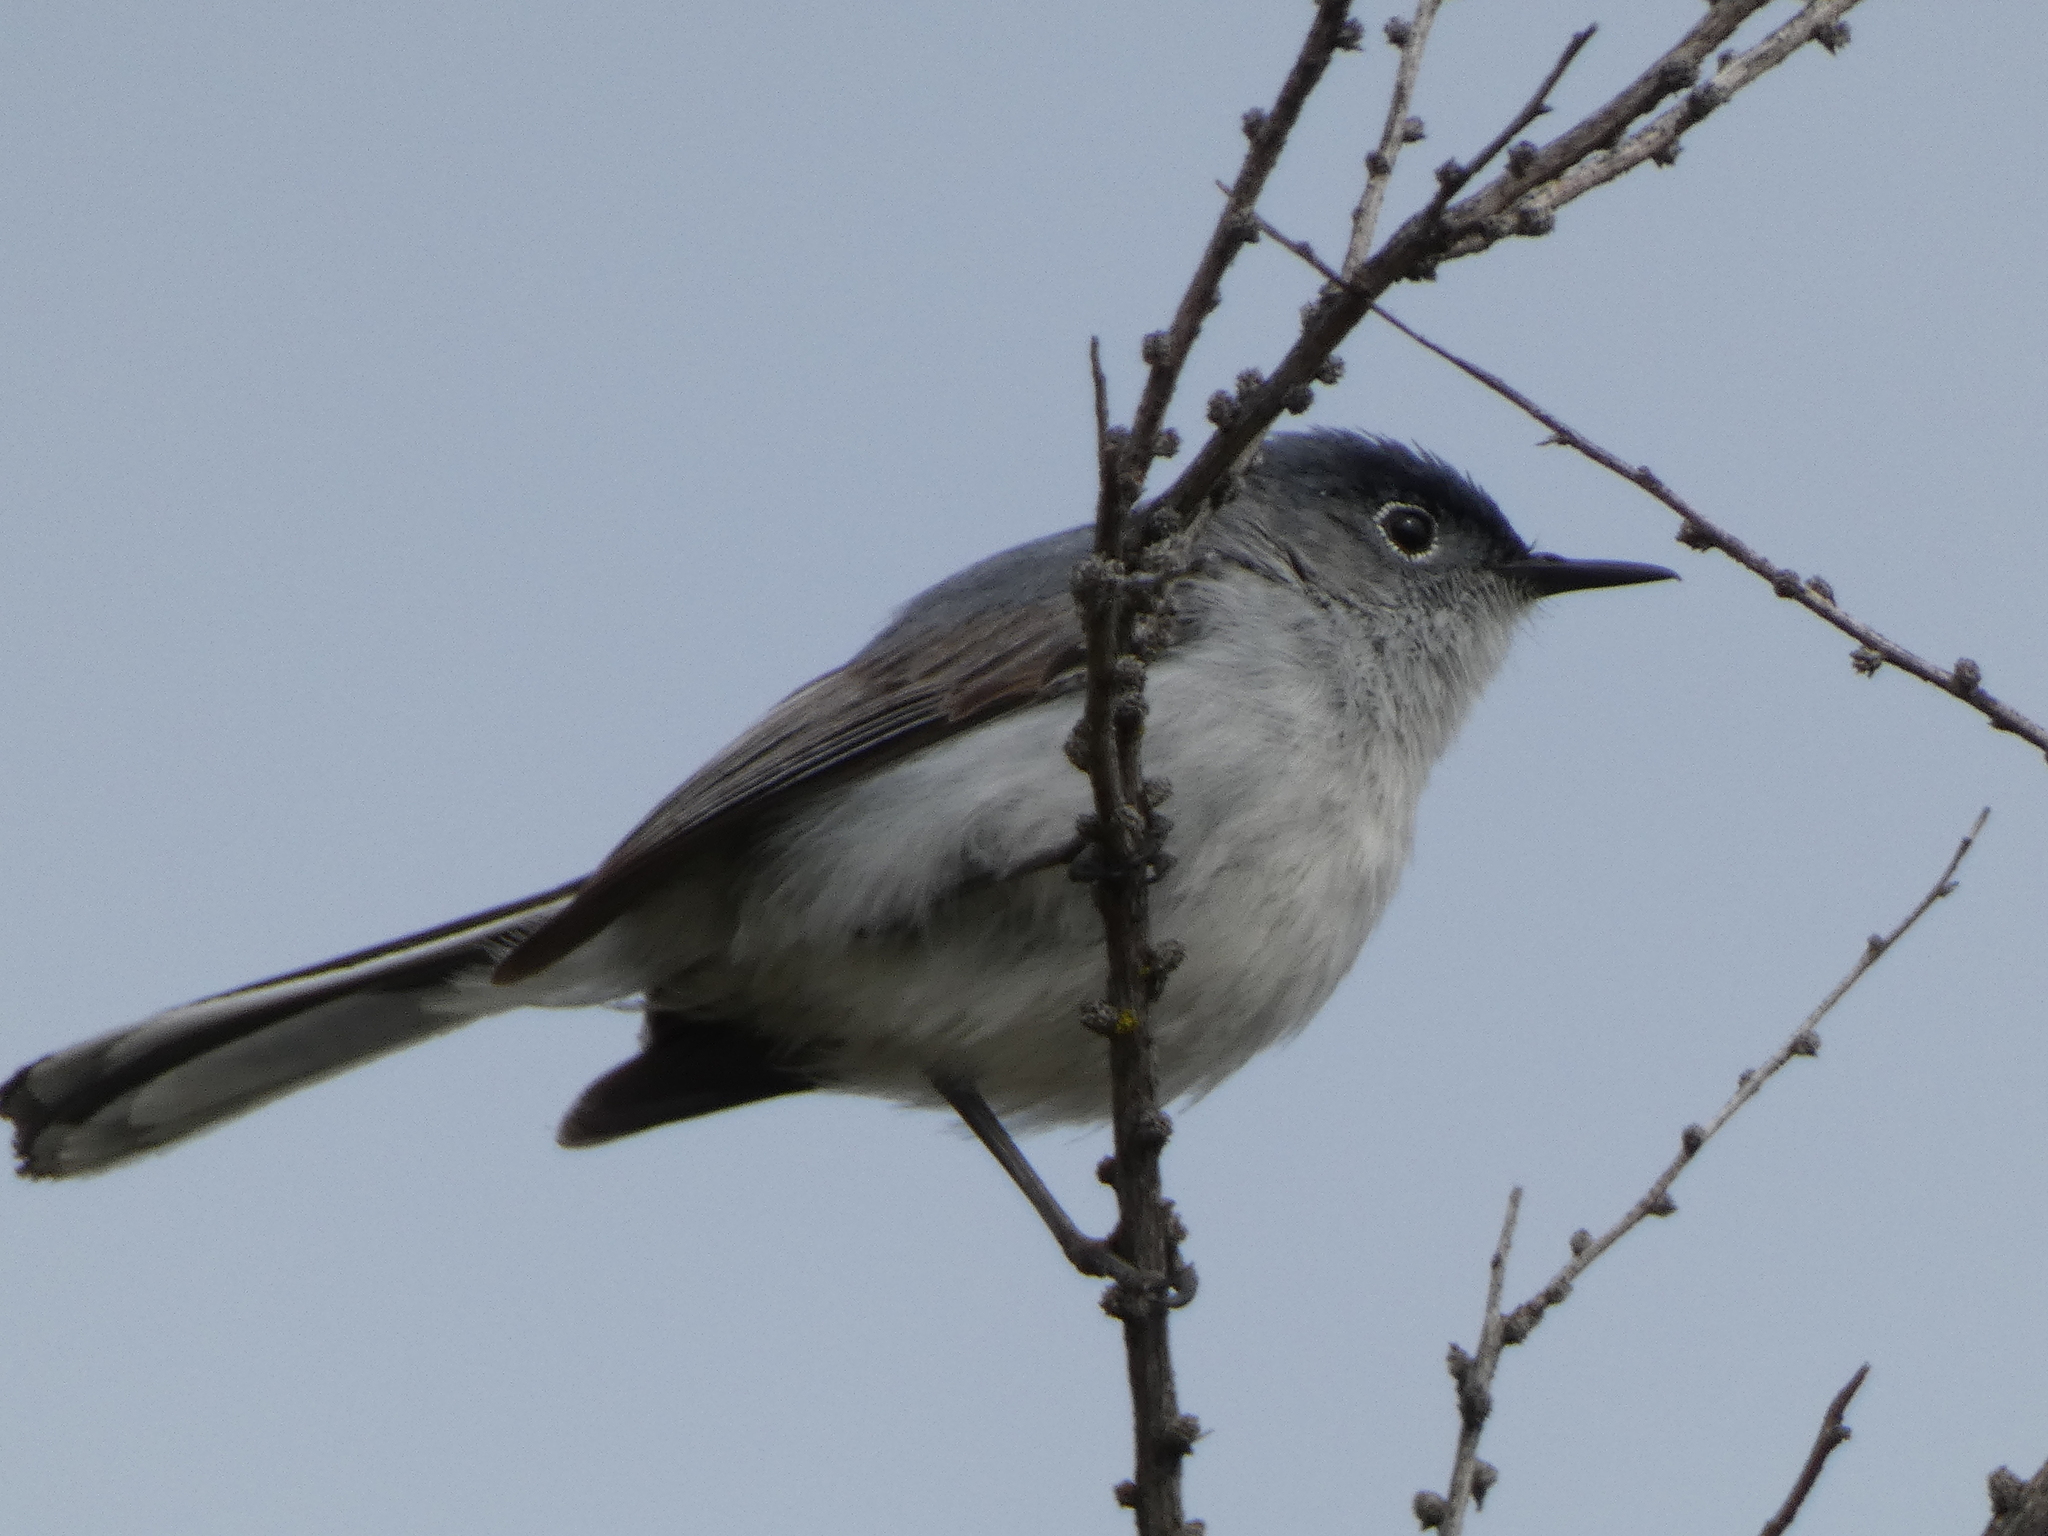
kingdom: Animalia
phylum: Chordata
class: Aves
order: Passeriformes
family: Polioptilidae
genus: Polioptila
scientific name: Polioptila caerulea
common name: Blue-gray gnatcatcher
